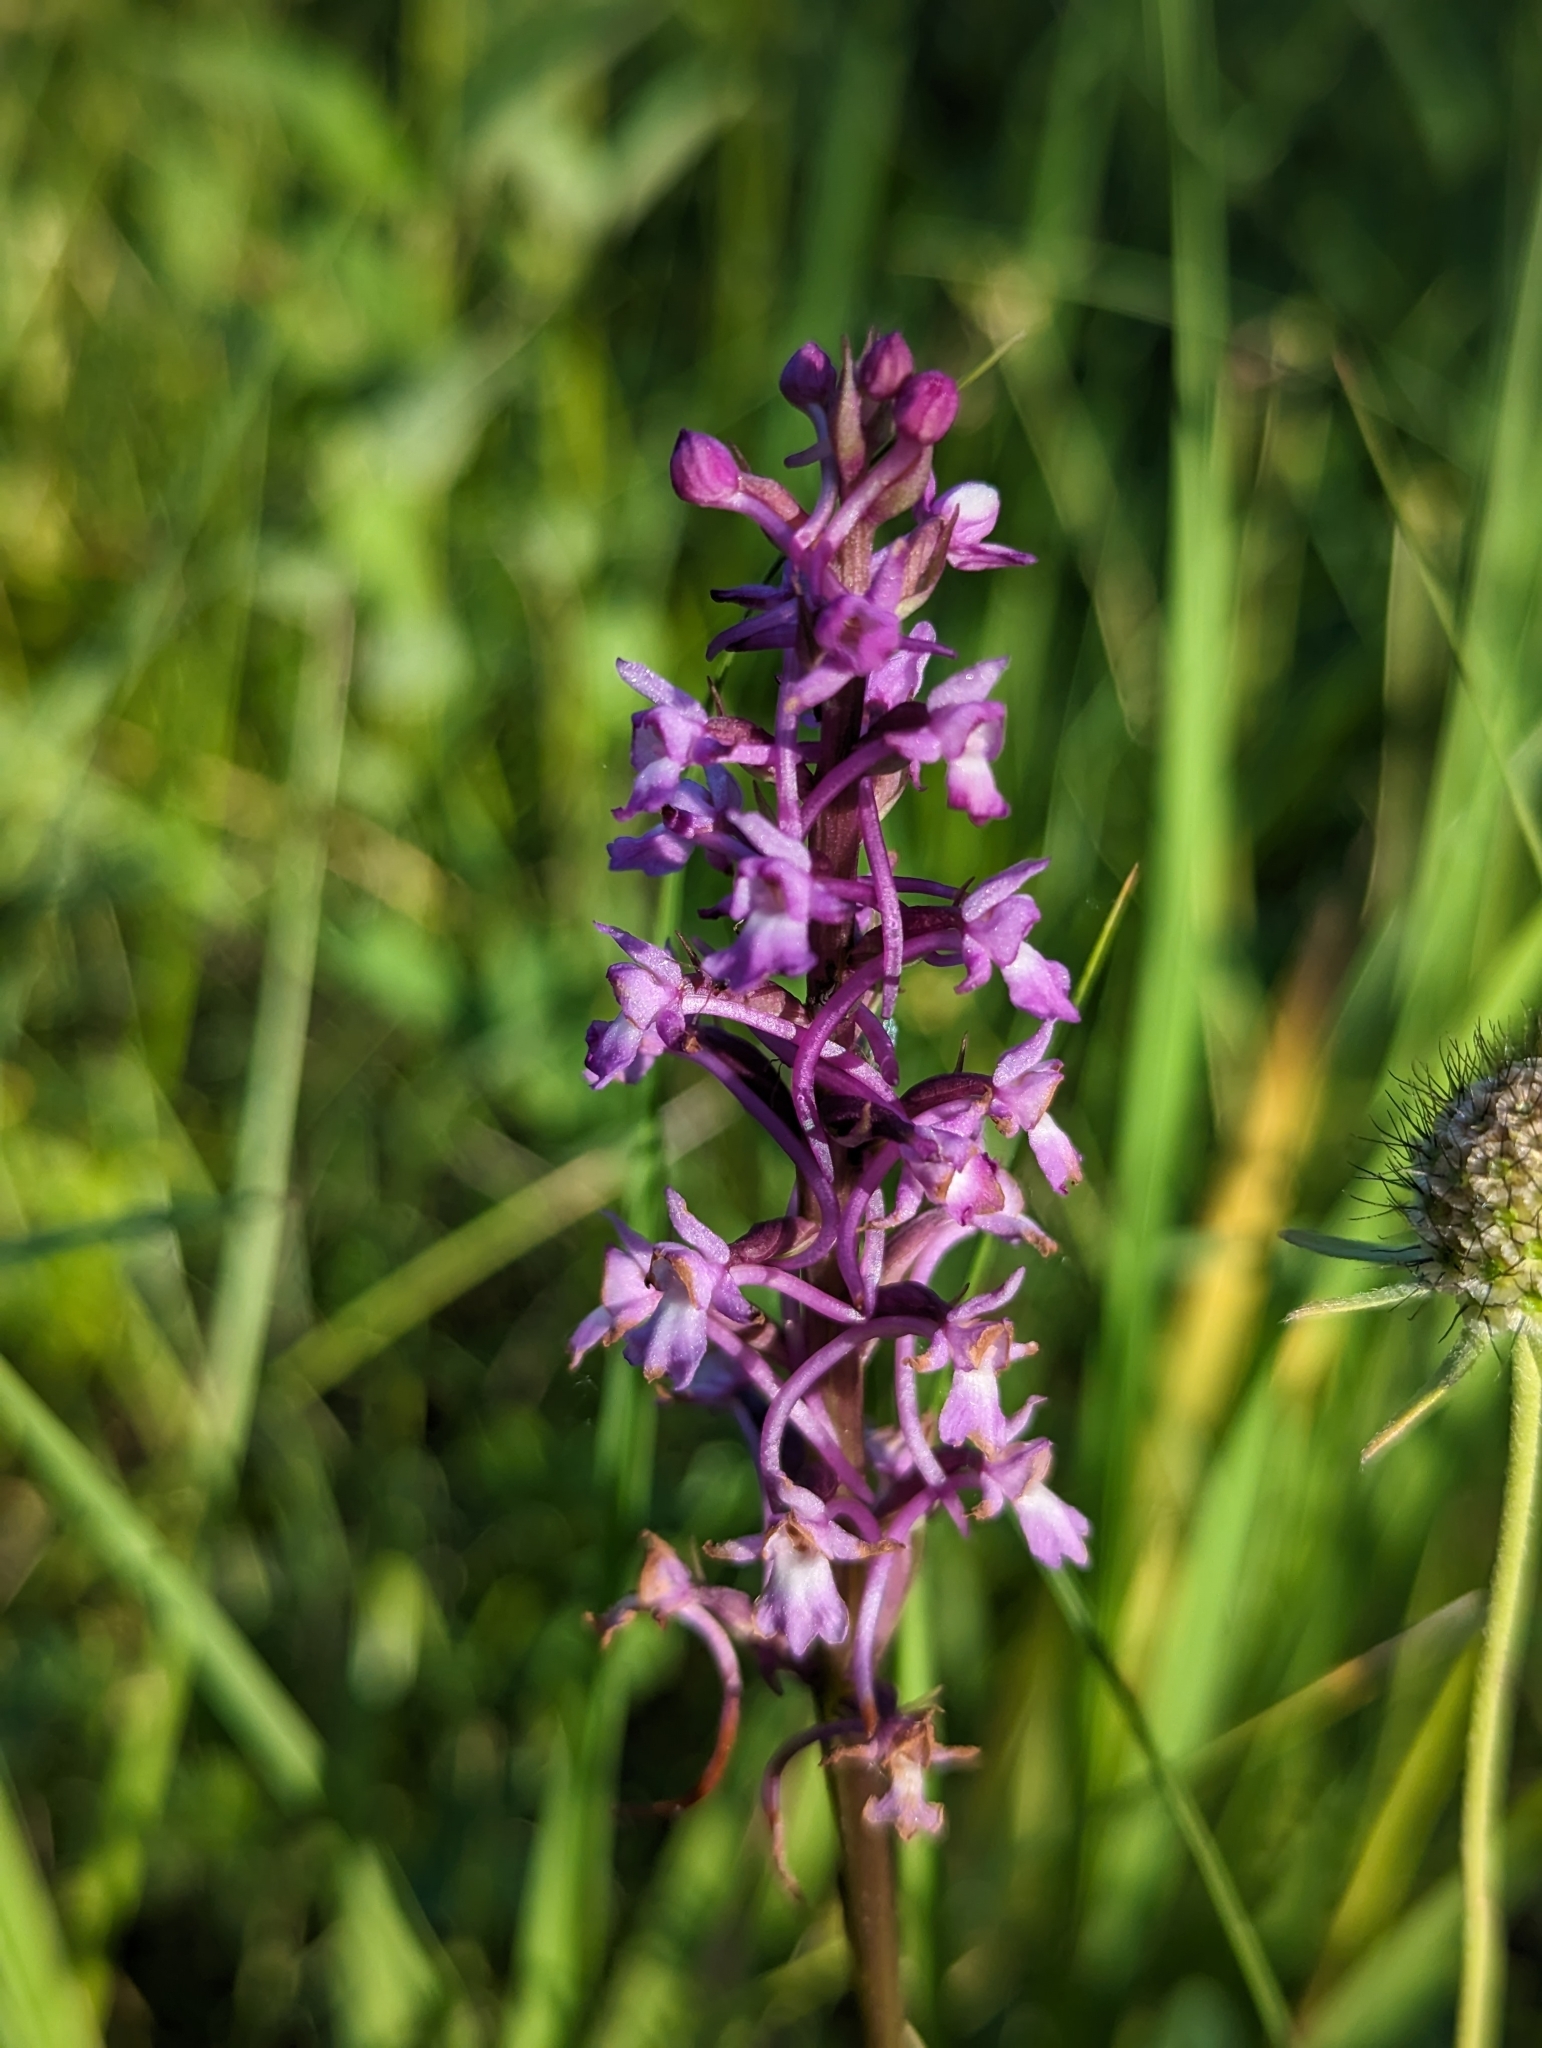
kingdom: Plantae
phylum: Tracheophyta
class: Liliopsida
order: Asparagales
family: Orchidaceae
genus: Gymnadenia
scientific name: Gymnadenia conopsea
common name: Fragrant orchid
